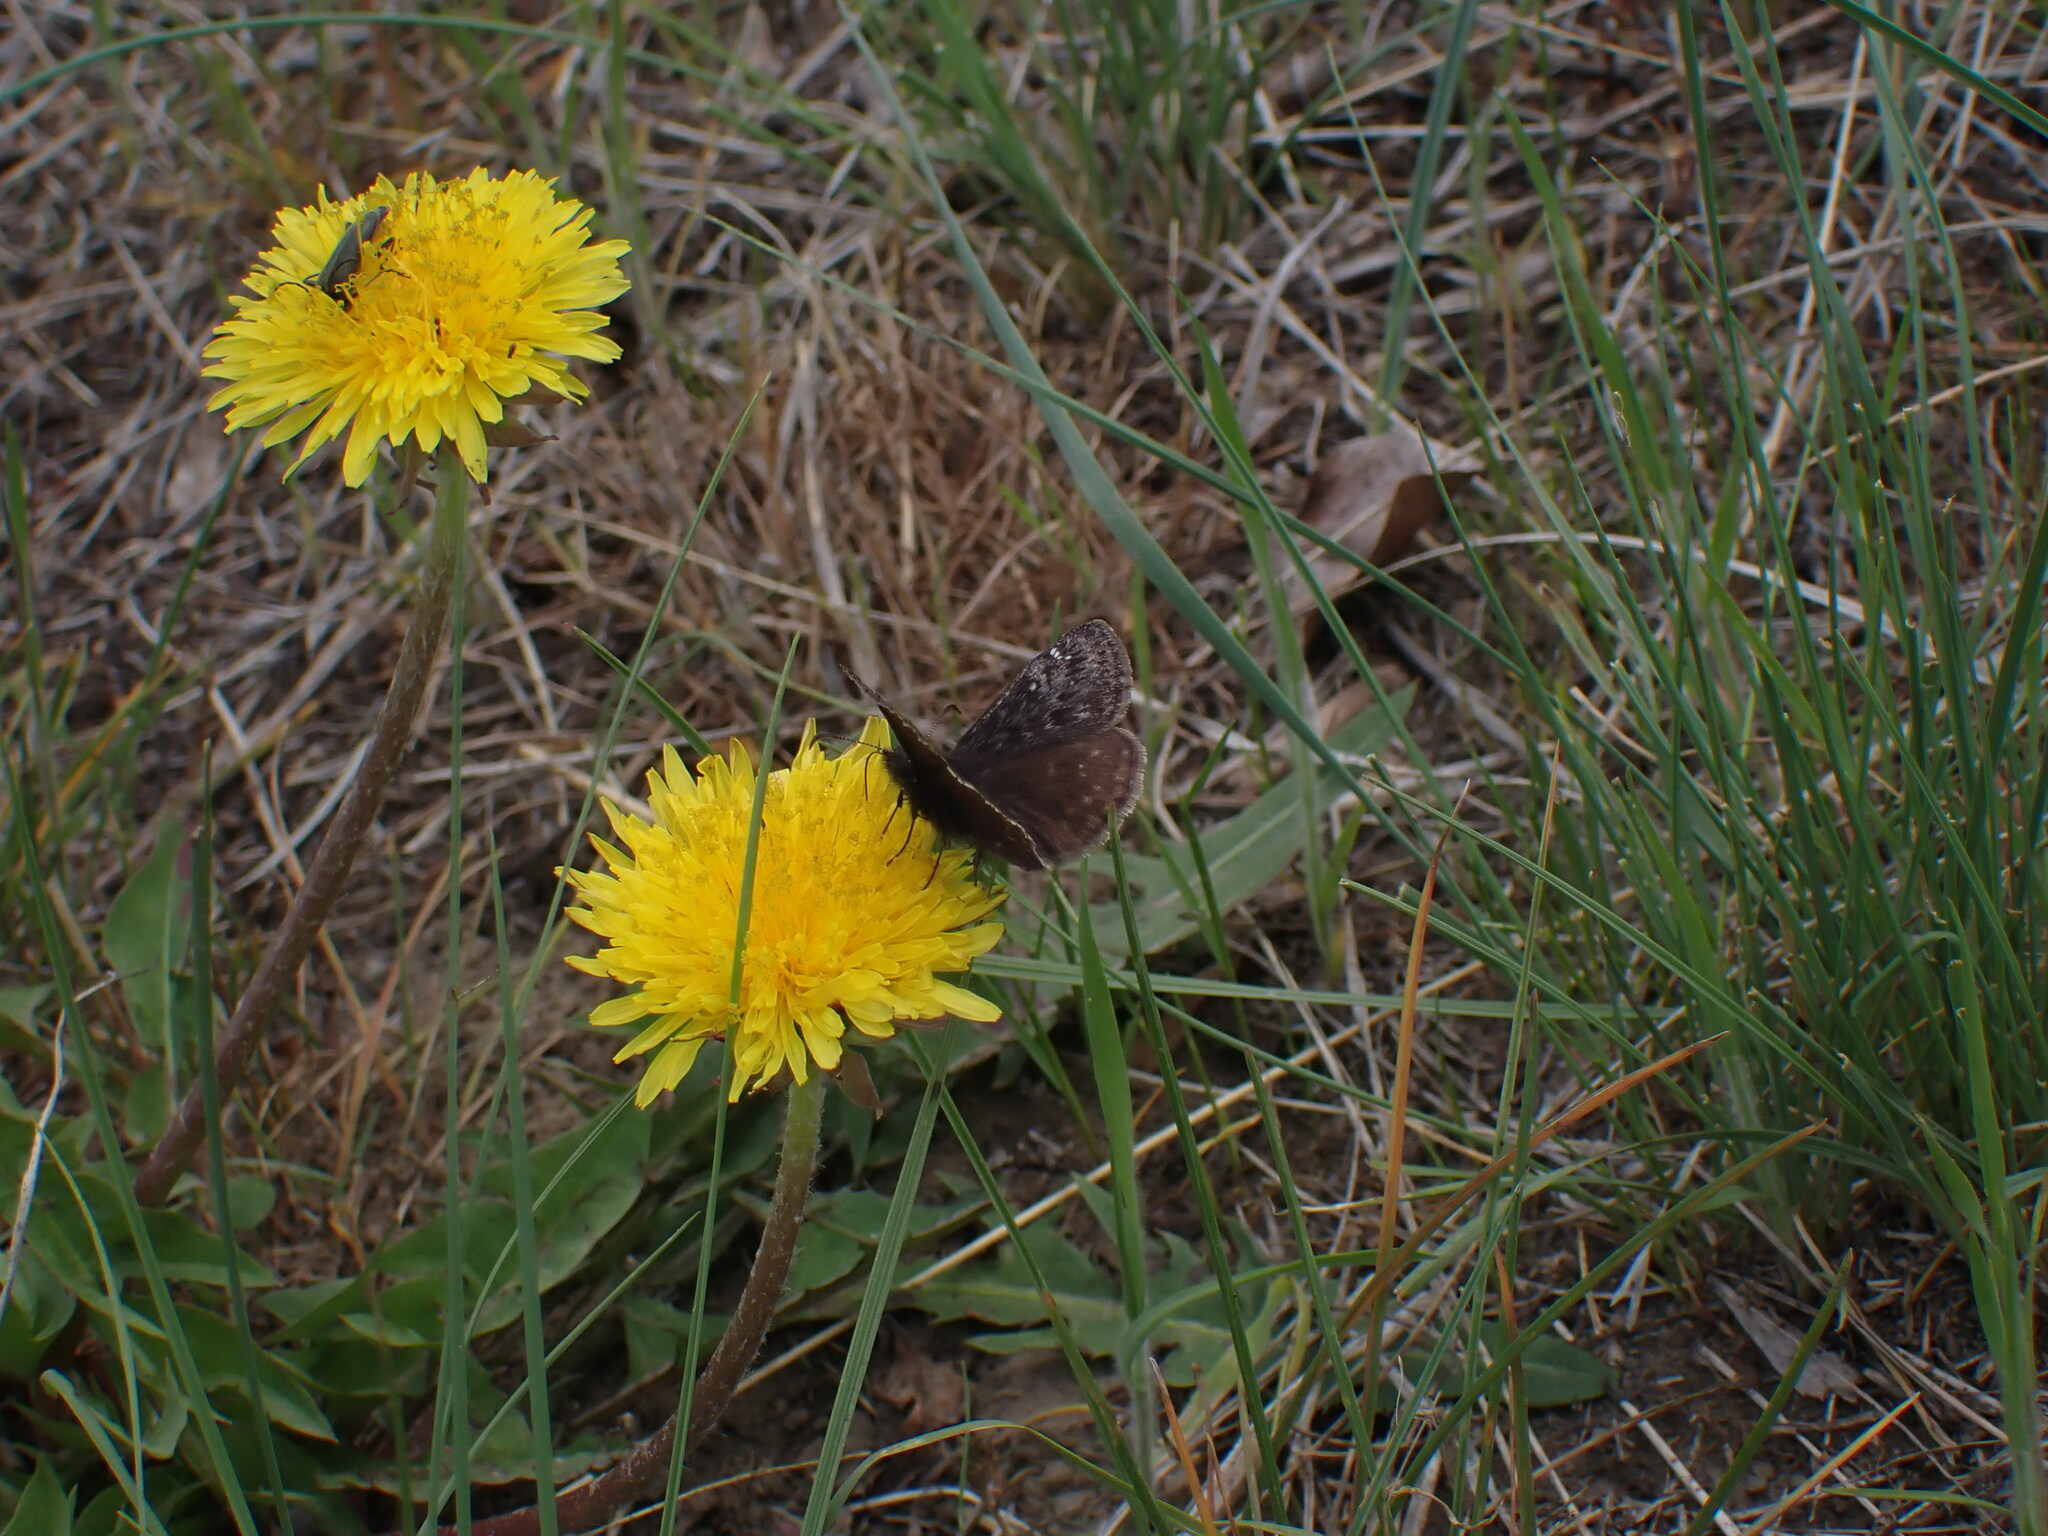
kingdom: Animalia
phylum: Arthropoda
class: Insecta
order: Lepidoptera
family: Hesperiidae
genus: Erynnis
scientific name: Erynnis persius
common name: Persius duskywing
